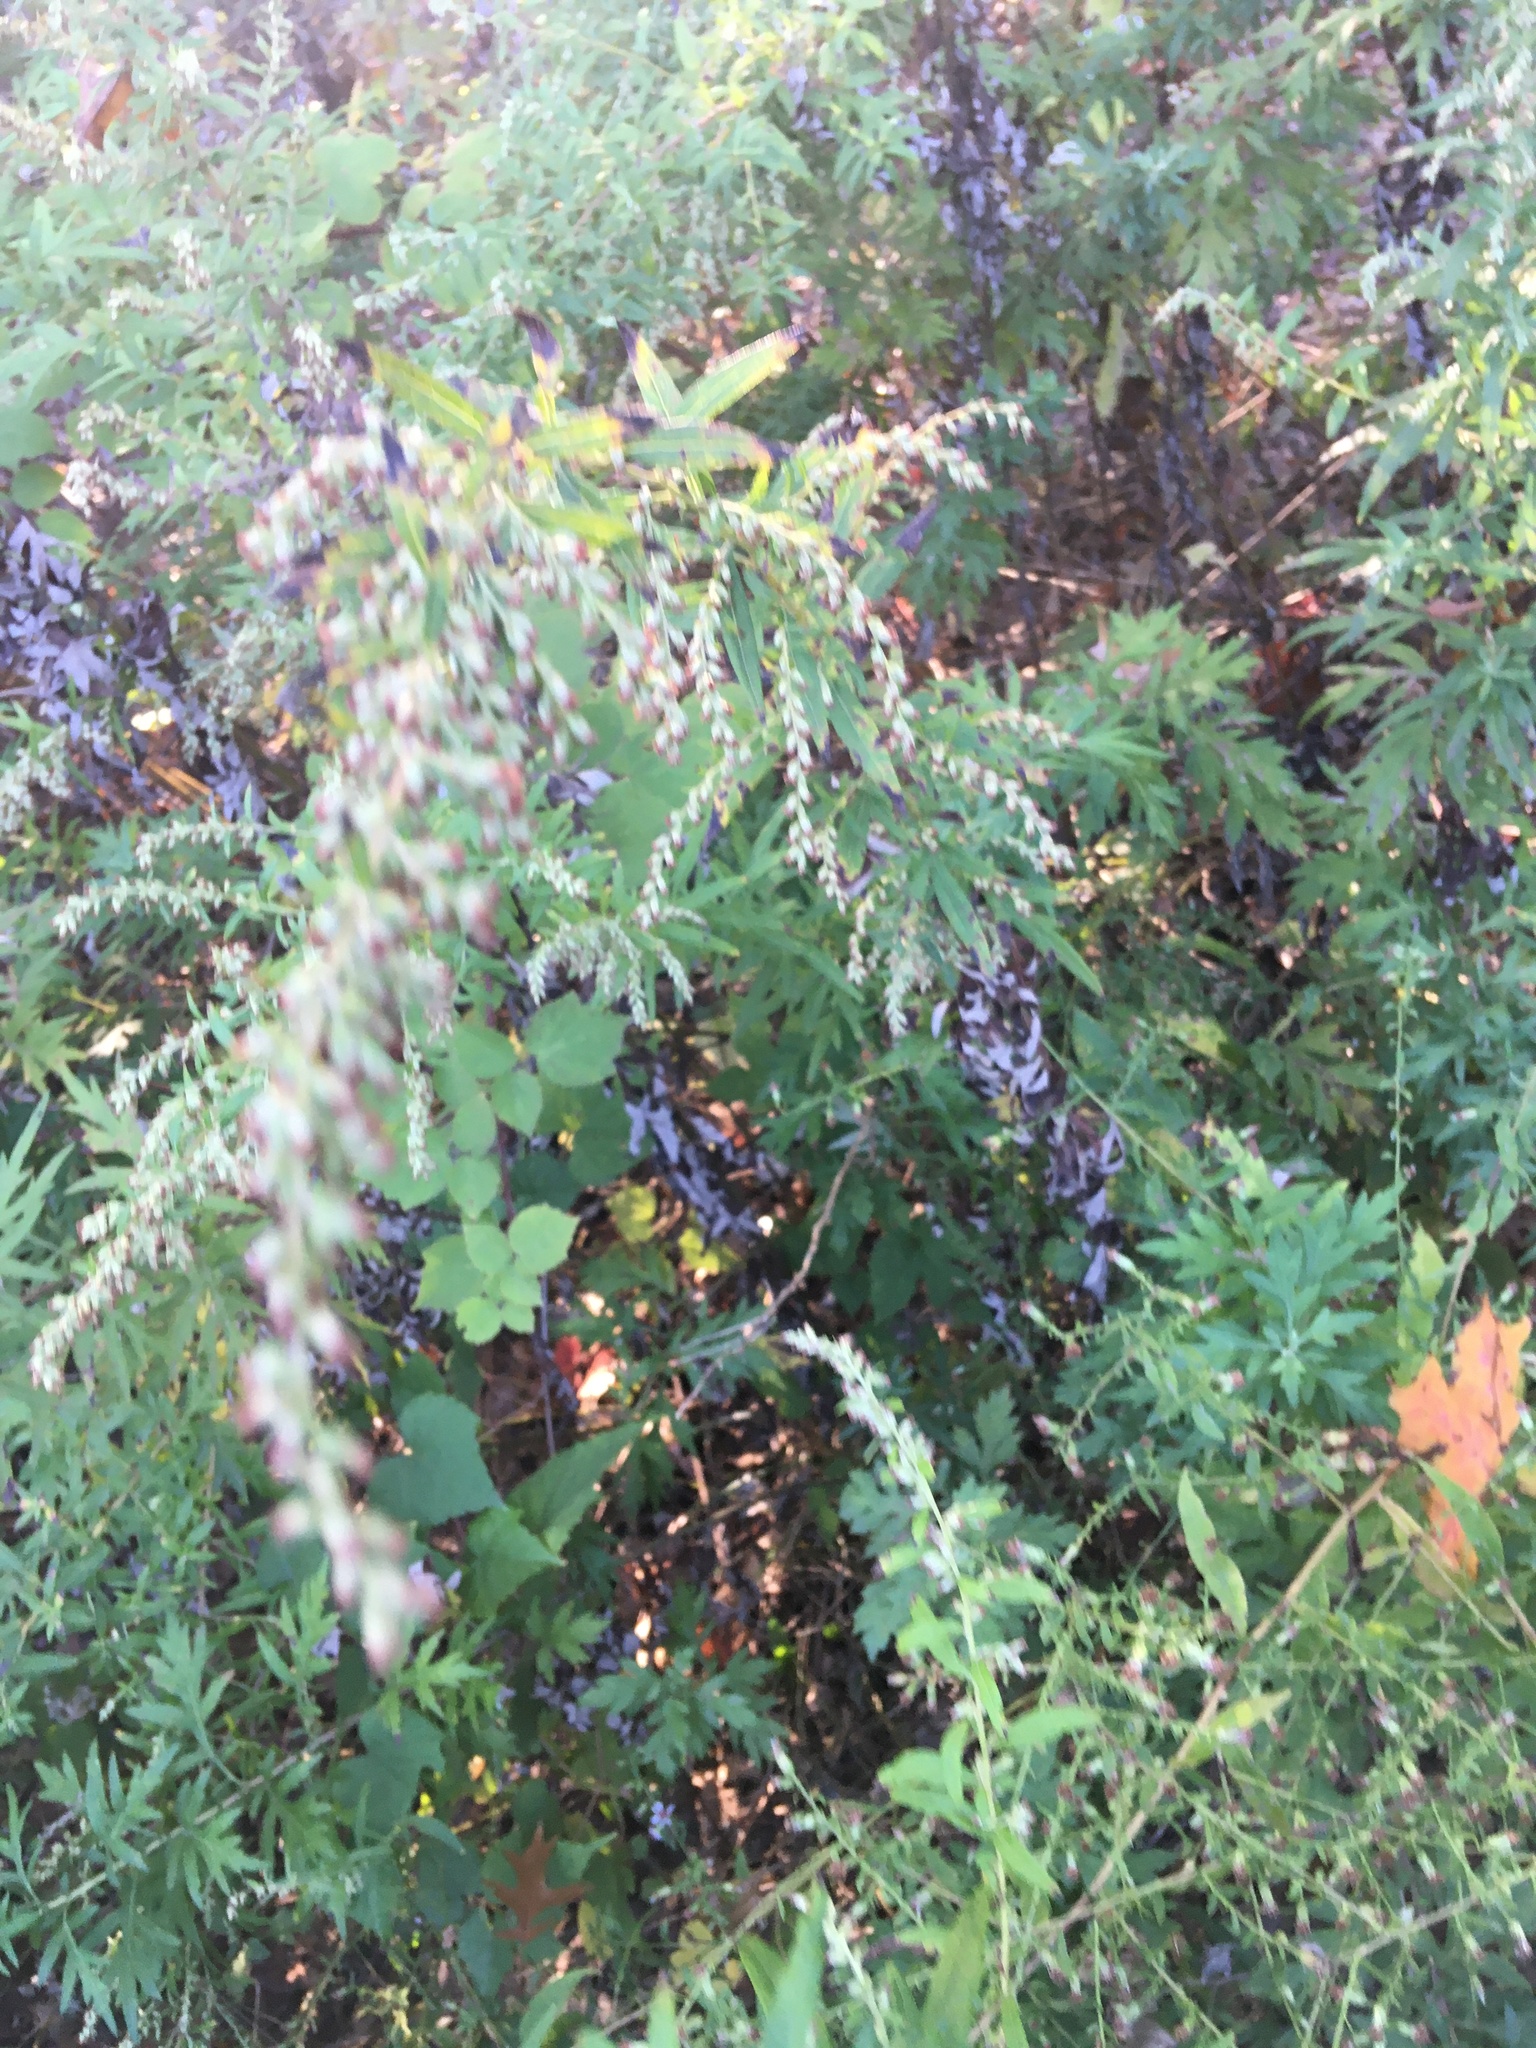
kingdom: Plantae
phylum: Tracheophyta
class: Magnoliopsida
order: Asterales
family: Asteraceae
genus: Artemisia
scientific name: Artemisia vulgaris
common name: Mugwort
